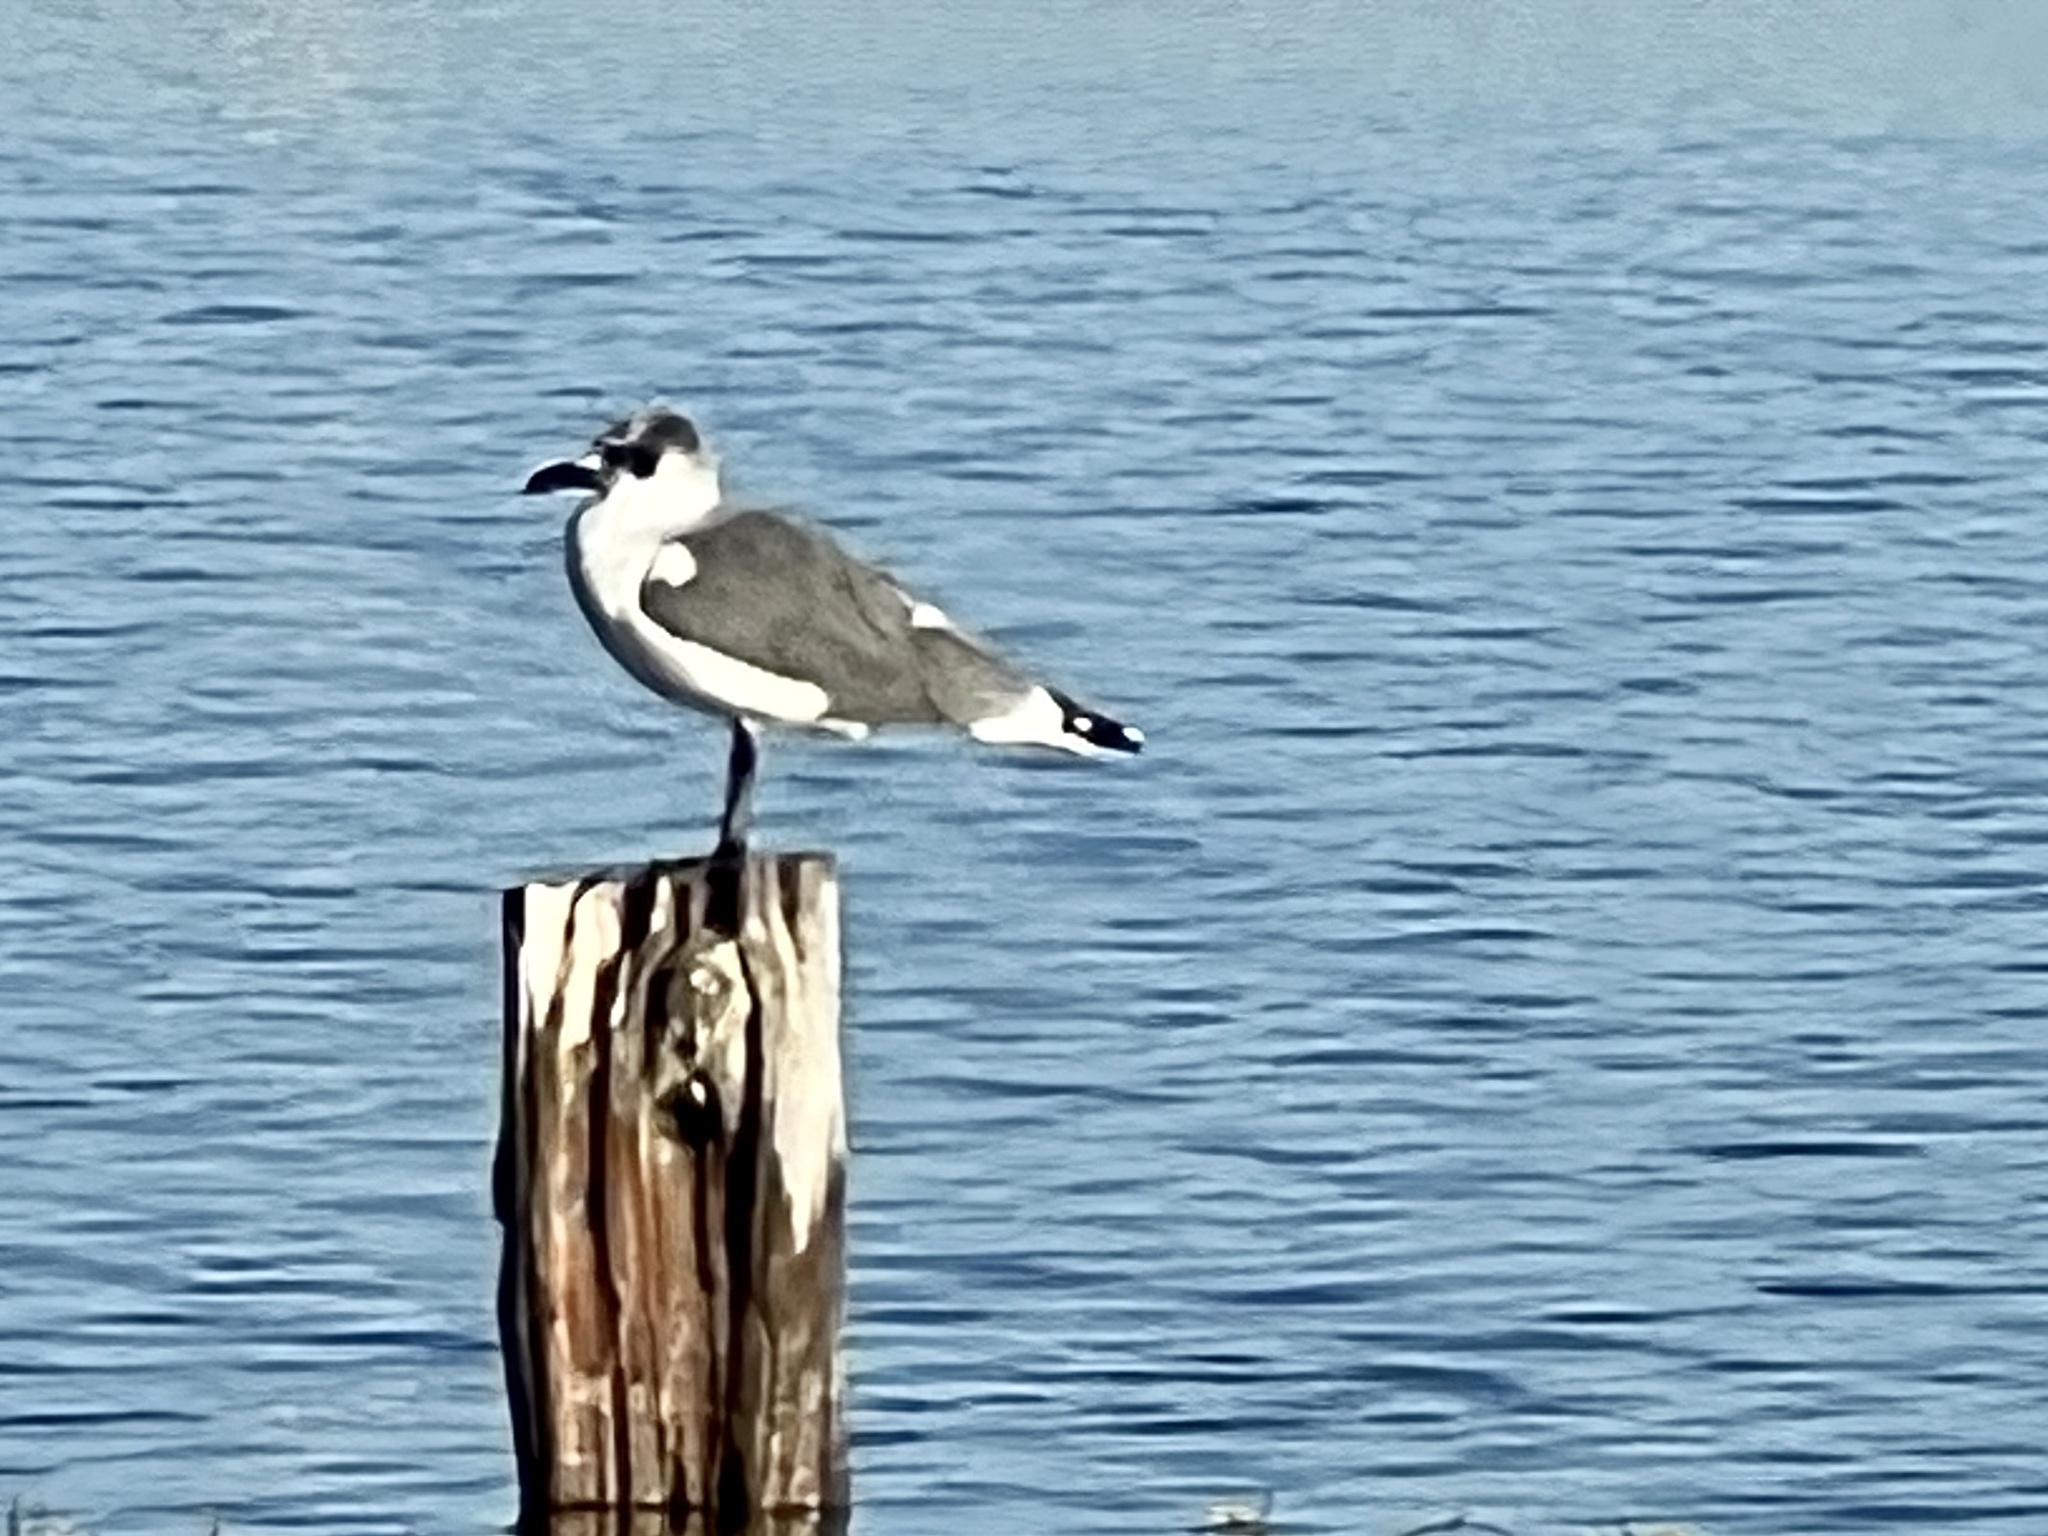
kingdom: Animalia
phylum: Chordata
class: Aves
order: Charadriiformes
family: Laridae
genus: Leucophaeus
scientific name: Leucophaeus atricilla
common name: Laughing gull
